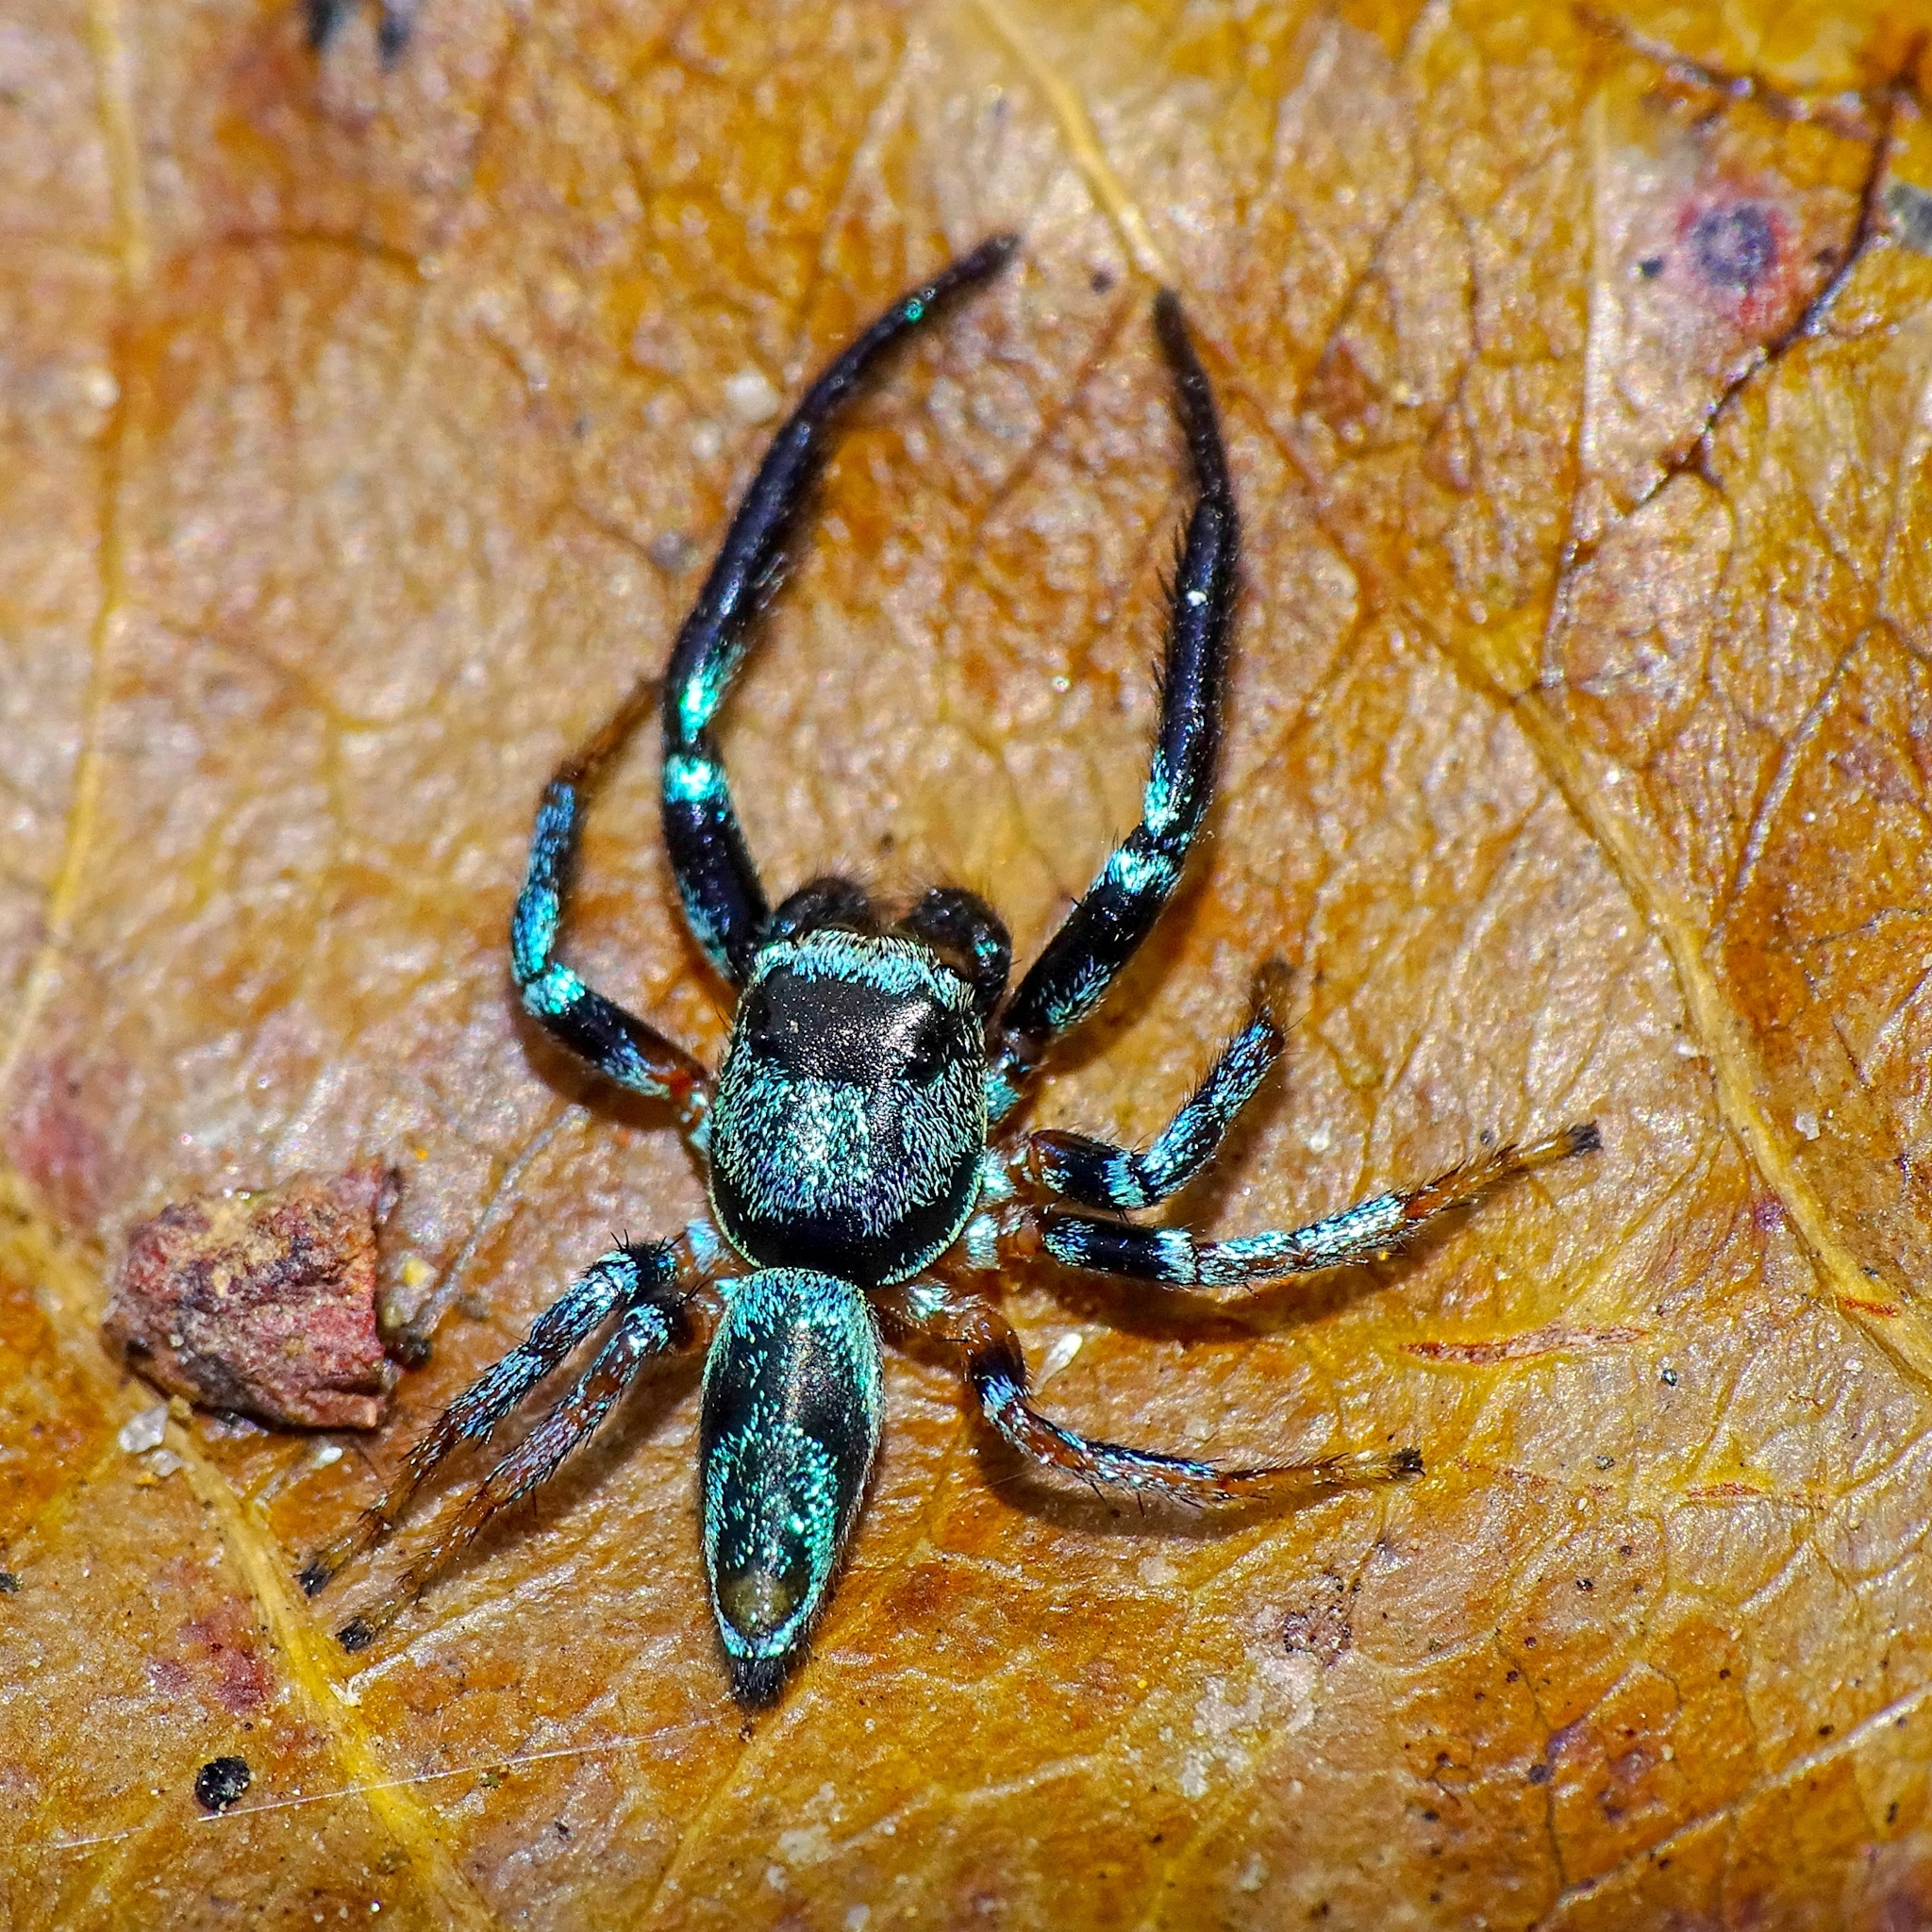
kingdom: Animalia
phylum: Arthropoda
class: Arachnida
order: Araneae
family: Salticidae
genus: Thiania
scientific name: Thiania bhamoensis
